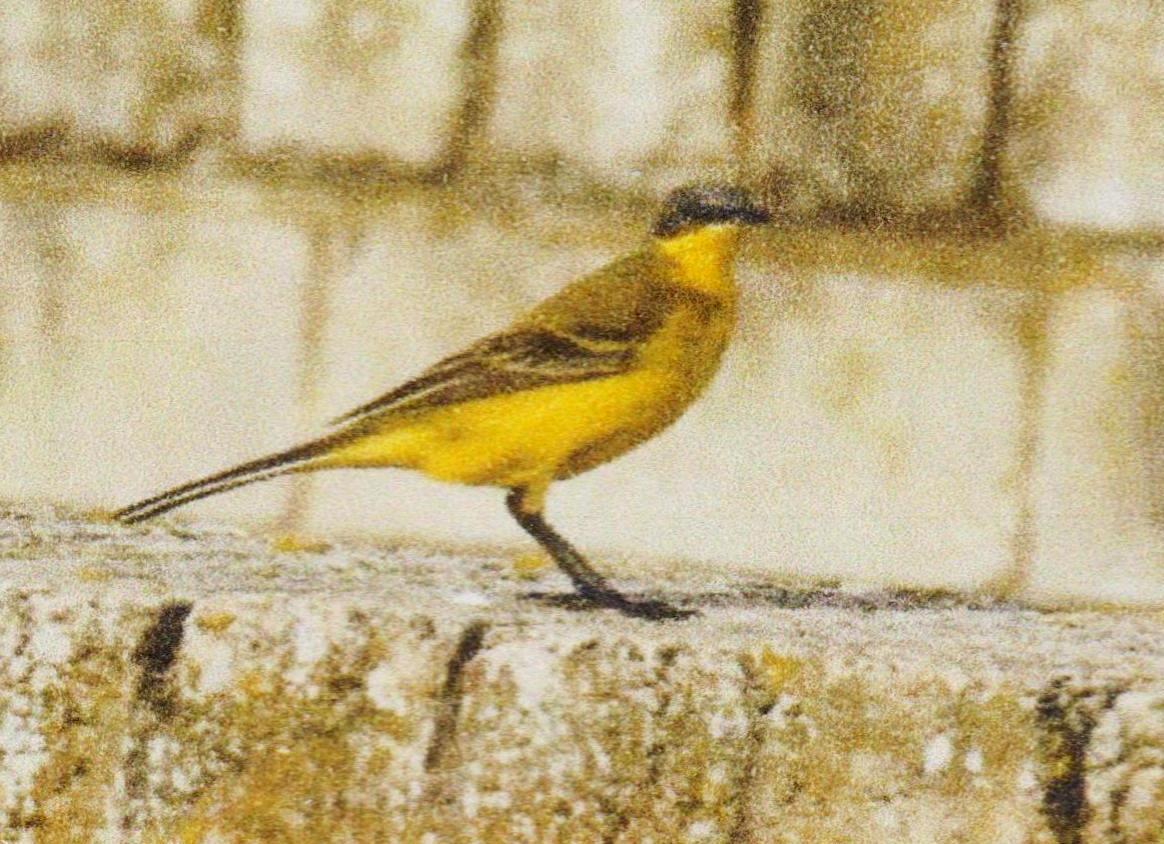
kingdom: Animalia
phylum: Chordata
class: Aves
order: Passeriformes
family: Motacillidae
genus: Motacilla
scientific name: Motacilla flava
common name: Western yellow wagtail
